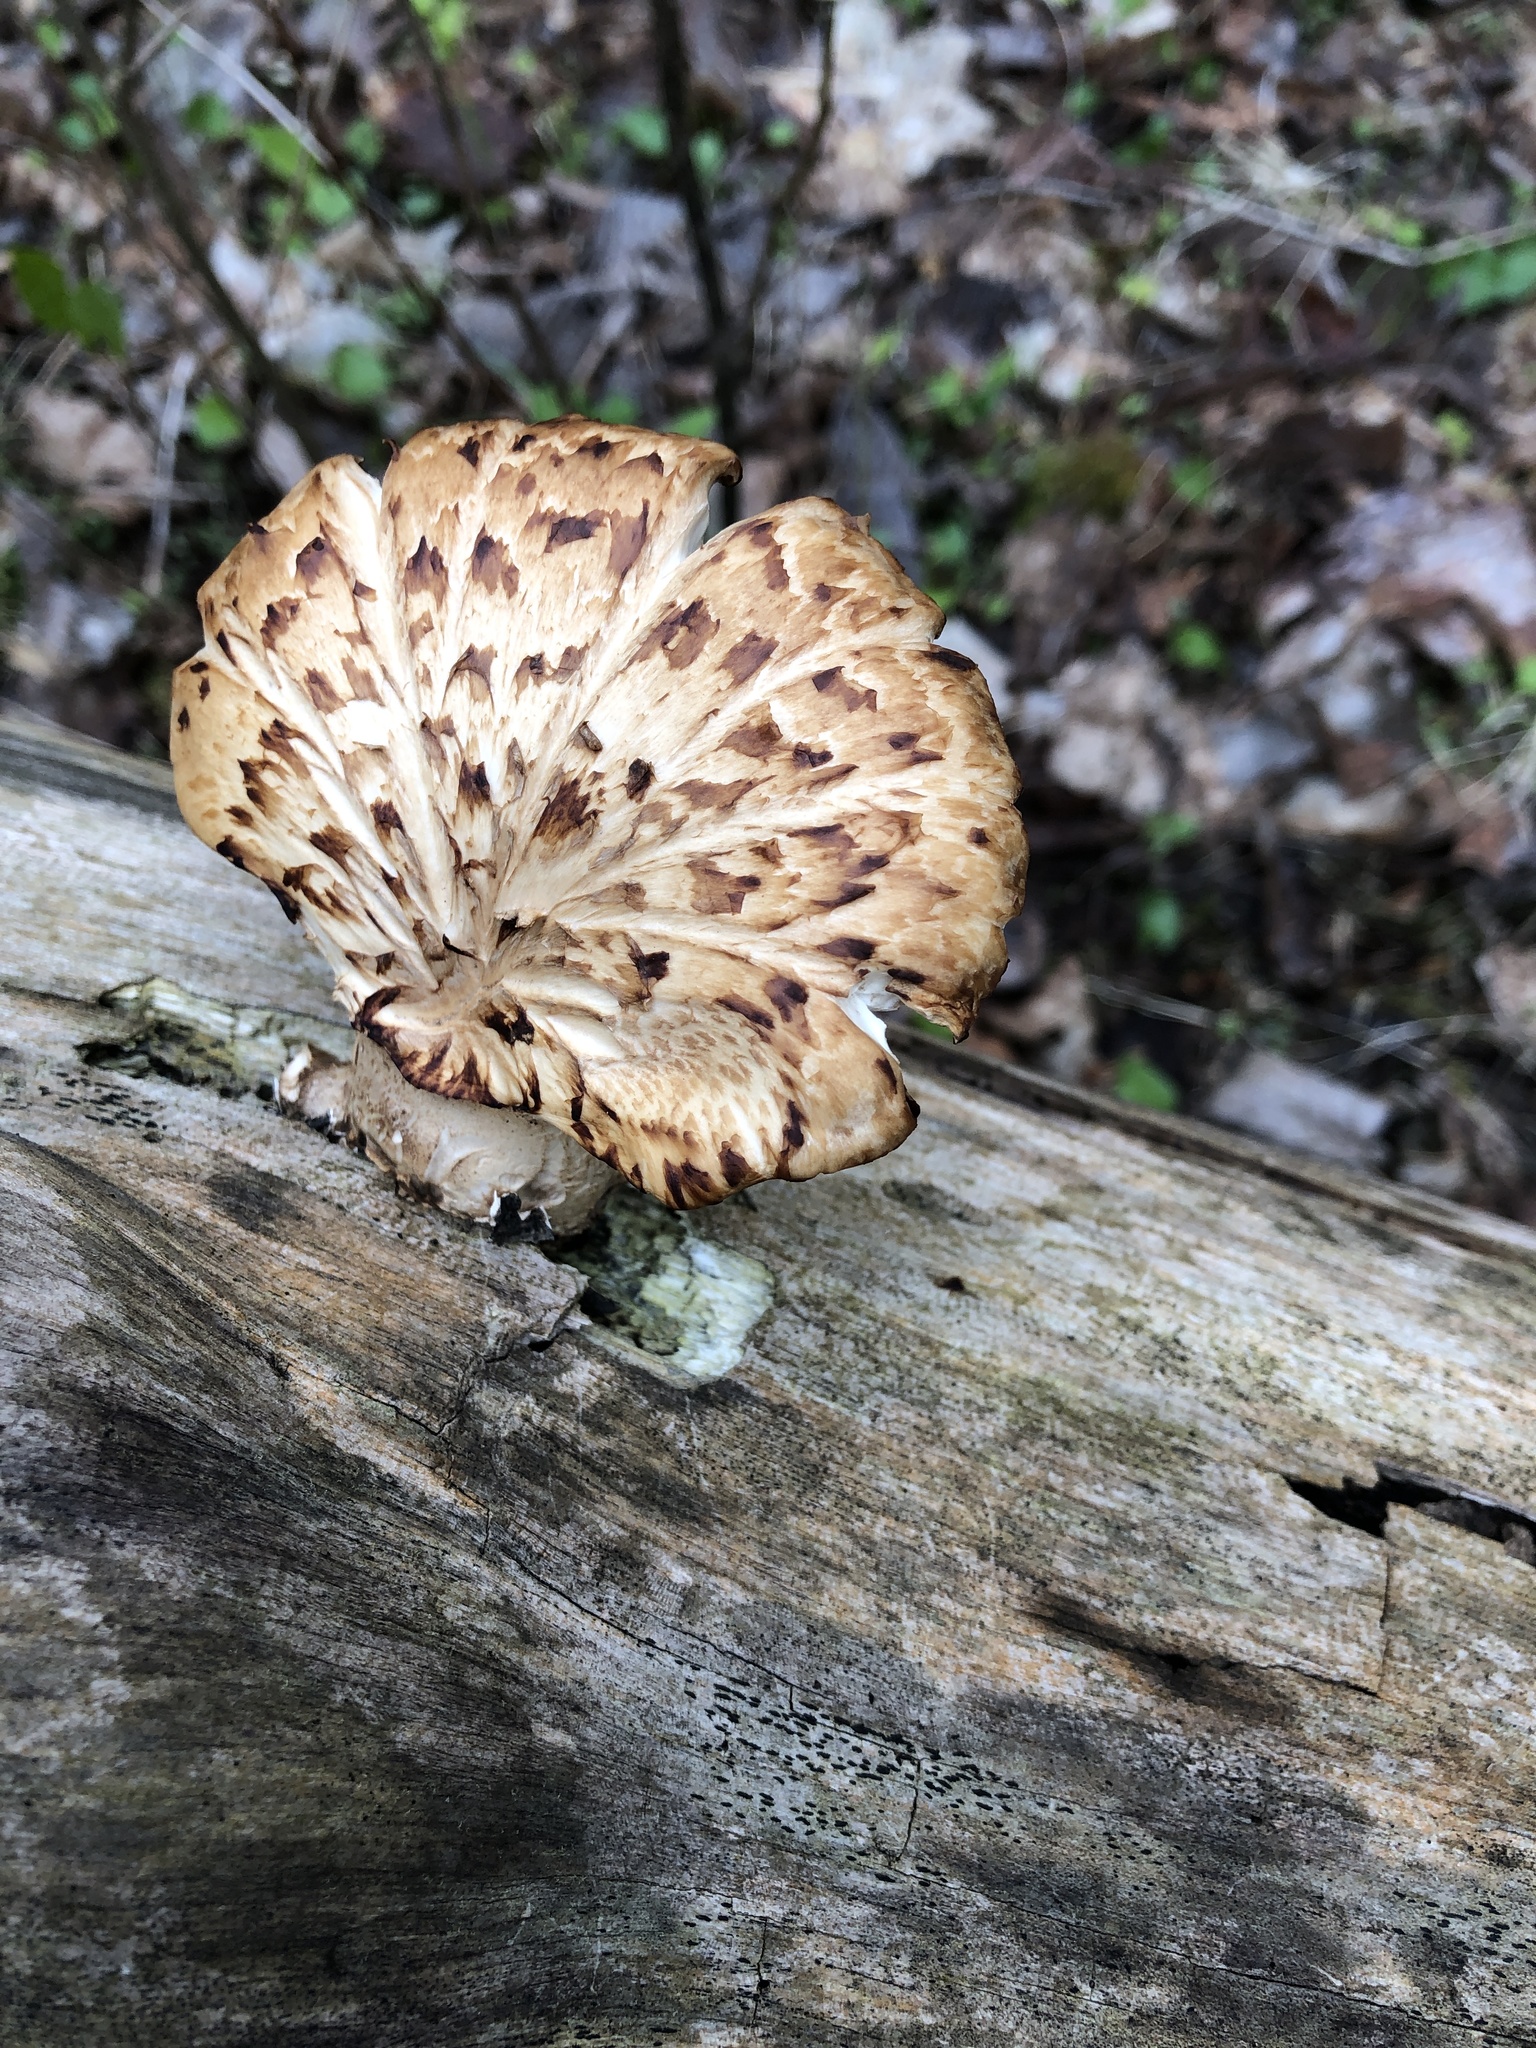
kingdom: Fungi
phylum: Basidiomycota
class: Agaricomycetes
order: Polyporales
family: Polyporaceae
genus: Cerioporus
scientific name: Cerioporus squamosus
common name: Dryad's saddle
